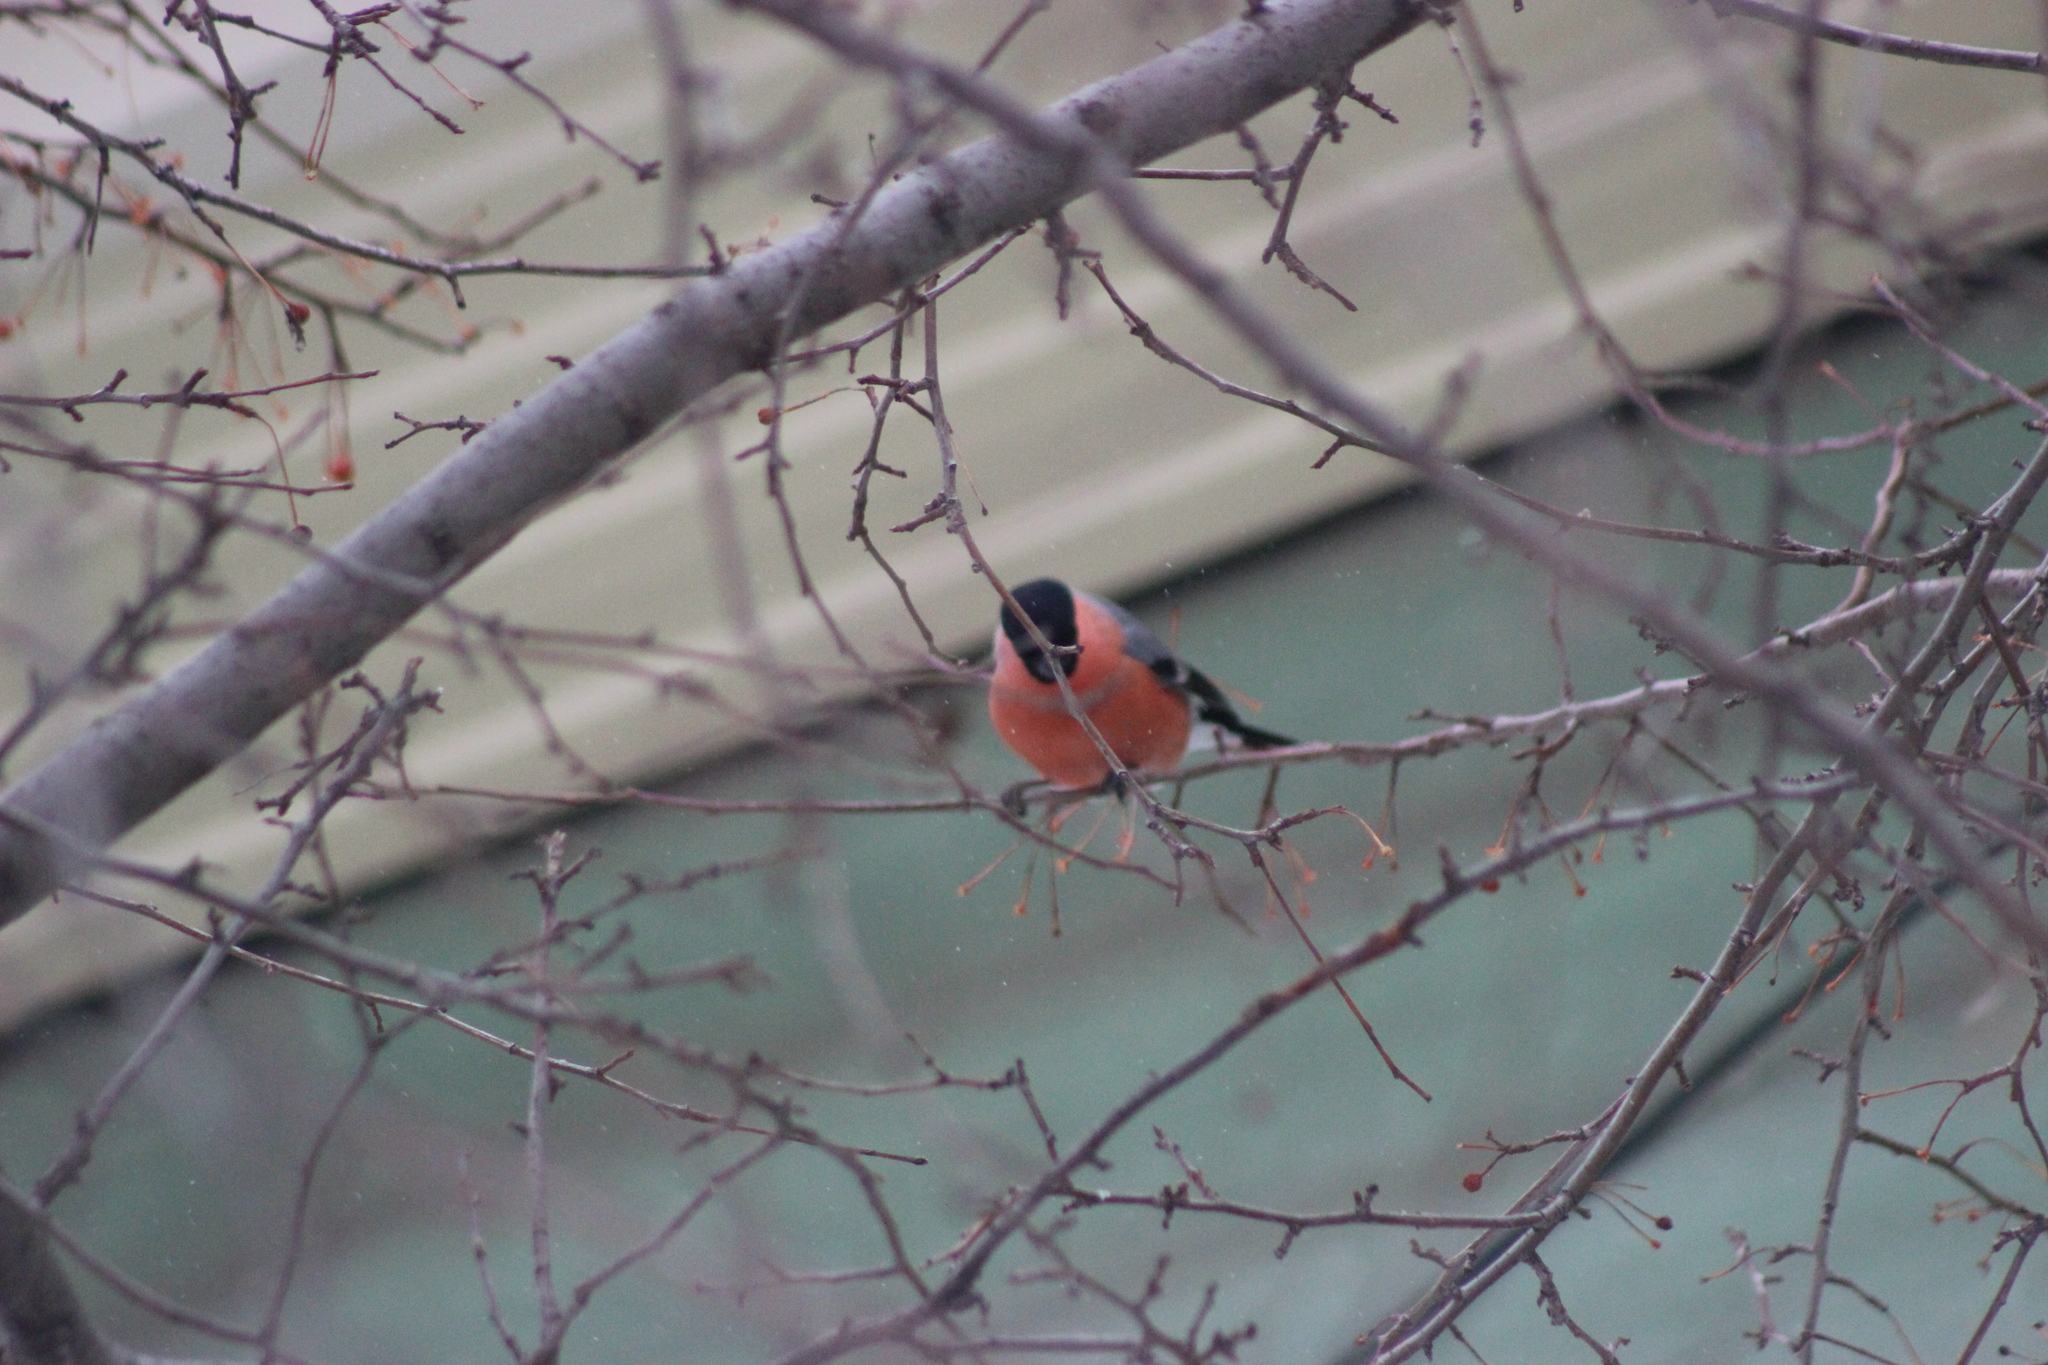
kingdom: Animalia
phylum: Chordata
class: Aves
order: Passeriformes
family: Fringillidae
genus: Pyrrhula
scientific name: Pyrrhula pyrrhula
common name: Eurasian bullfinch
